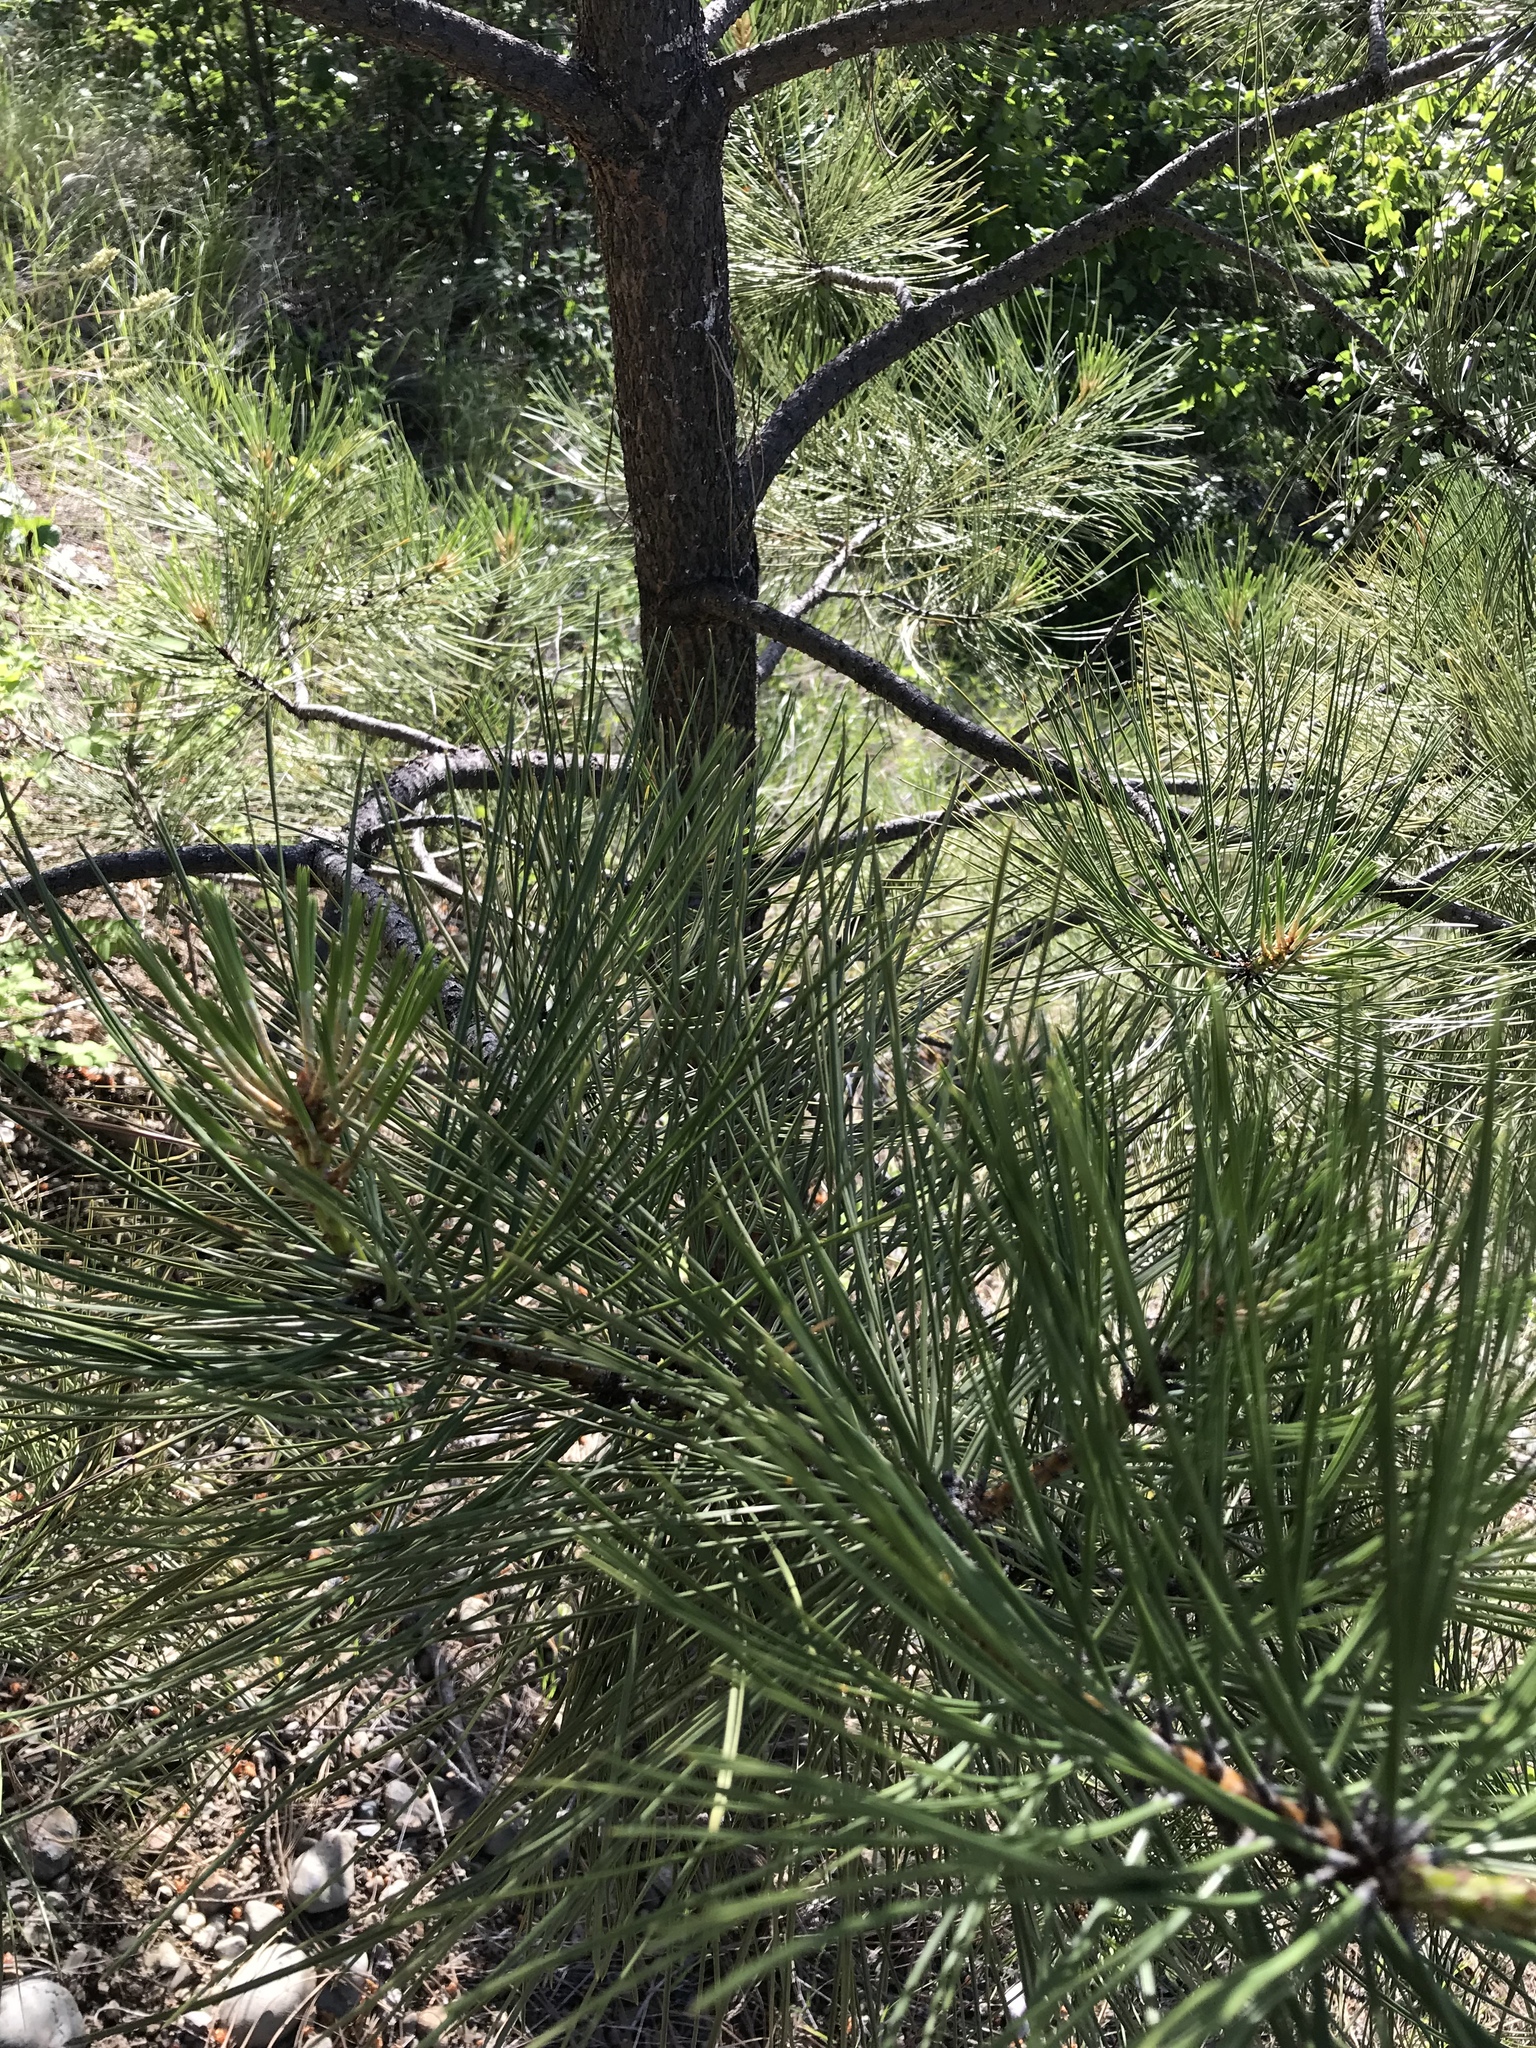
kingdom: Plantae
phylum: Tracheophyta
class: Pinopsida
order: Pinales
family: Pinaceae
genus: Pinus
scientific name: Pinus ponderosa
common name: Western yellow-pine
